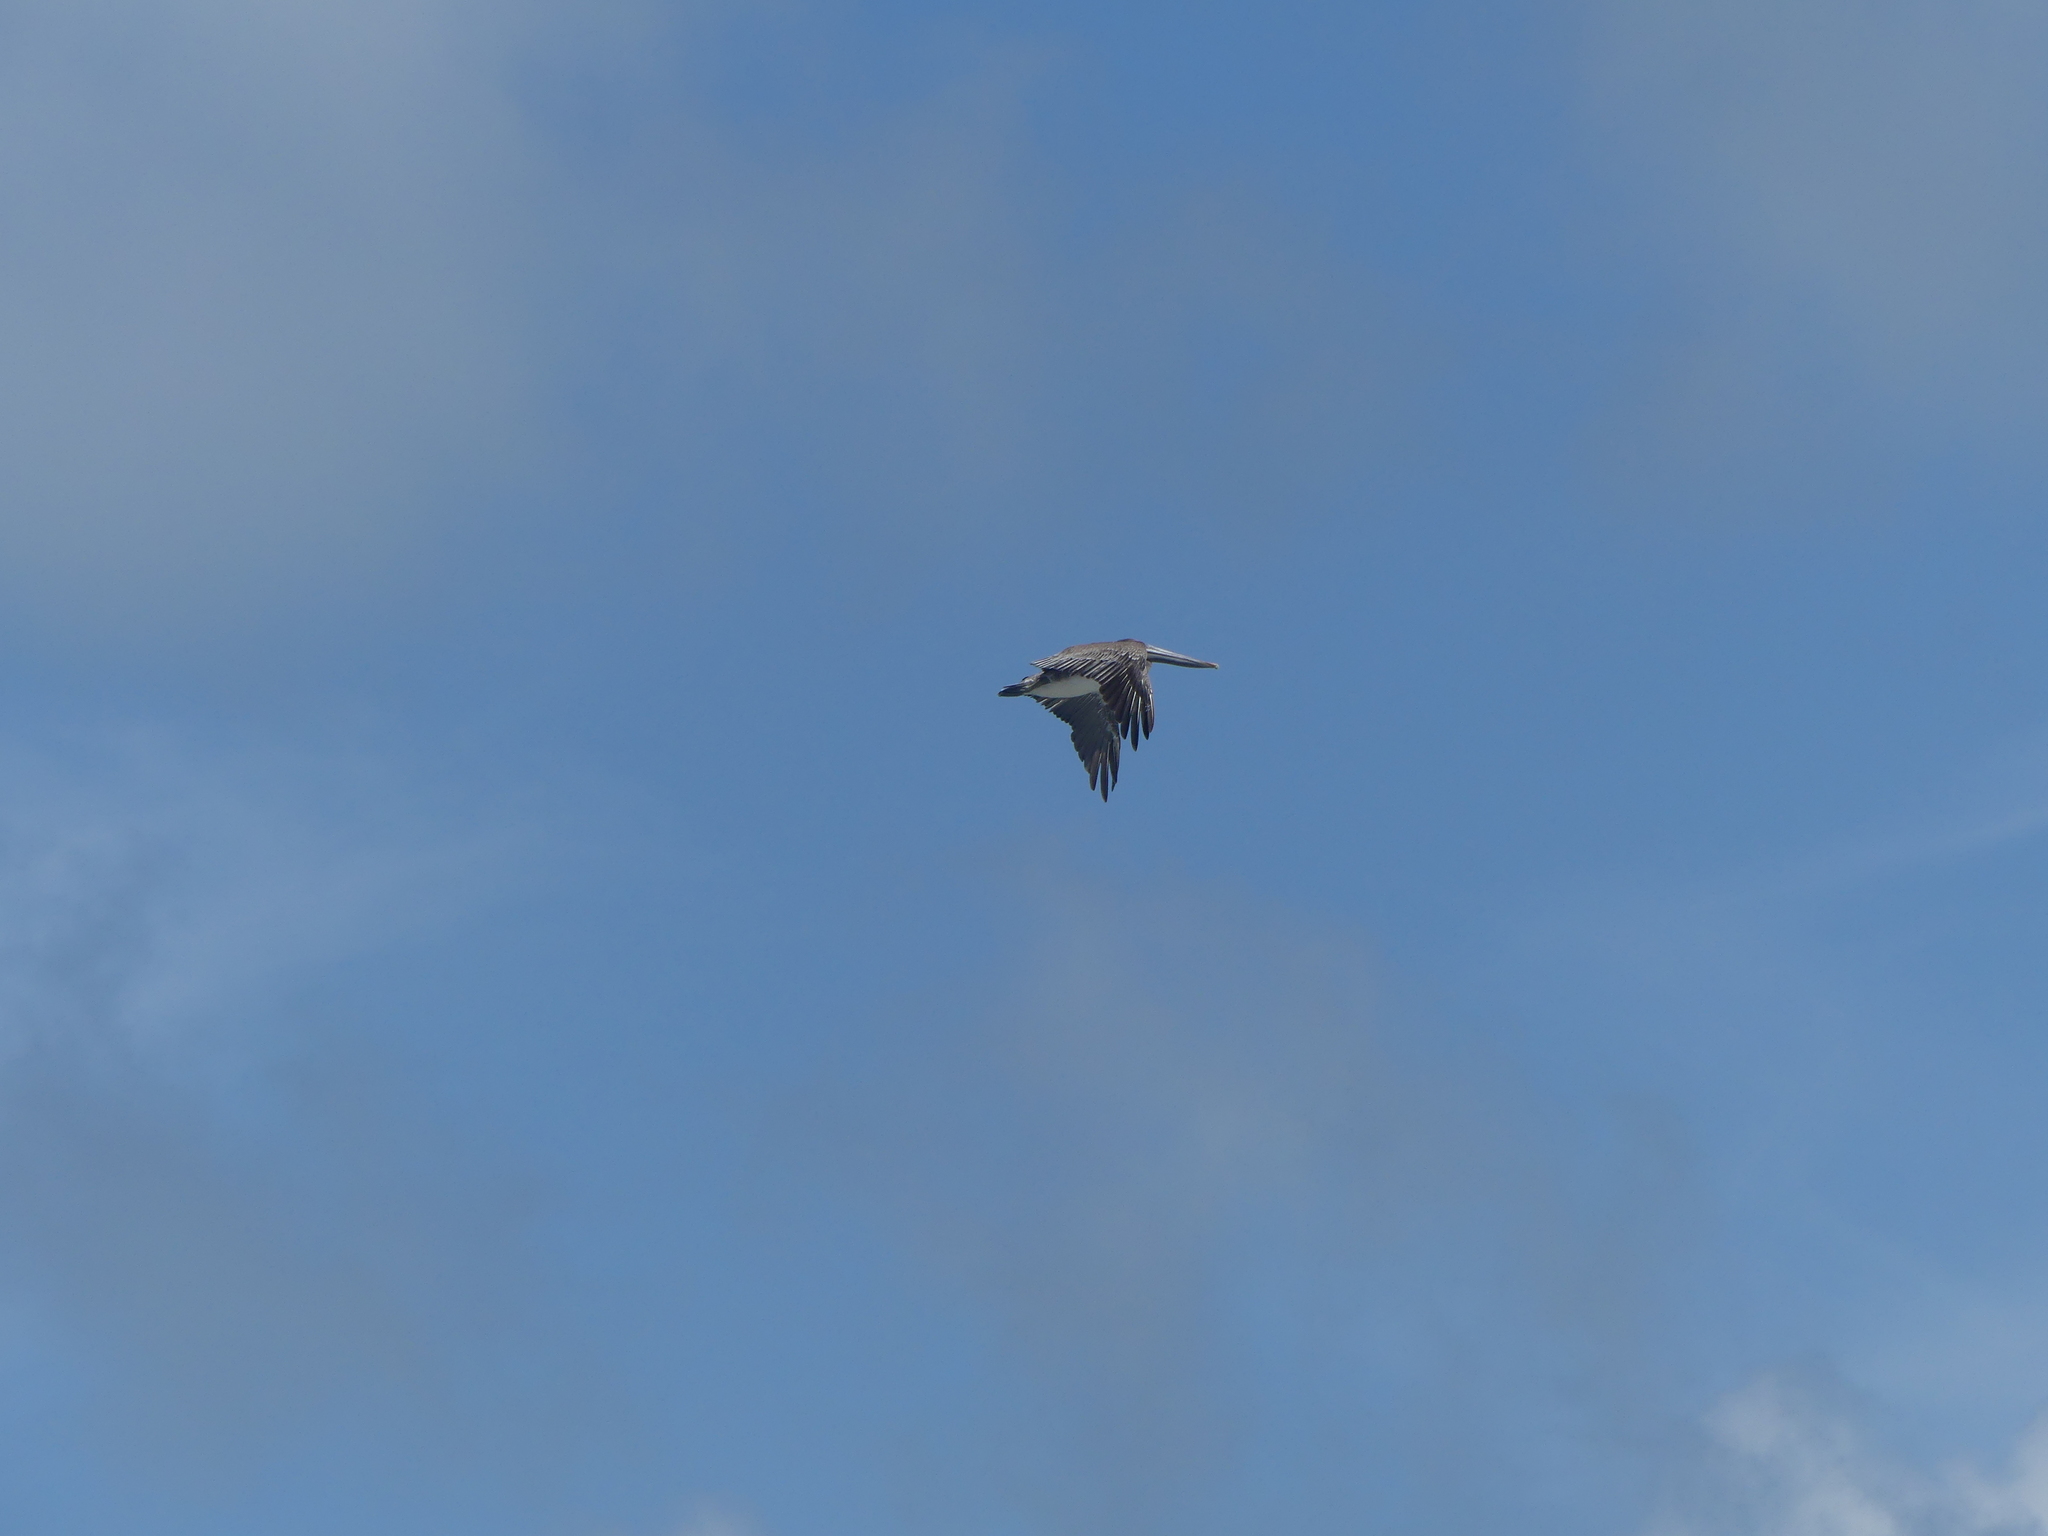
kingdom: Animalia
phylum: Chordata
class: Aves
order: Pelecaniformes
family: Pelecanidae
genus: Pelecanus
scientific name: Pelecanus occidentalis
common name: Brown pelican
